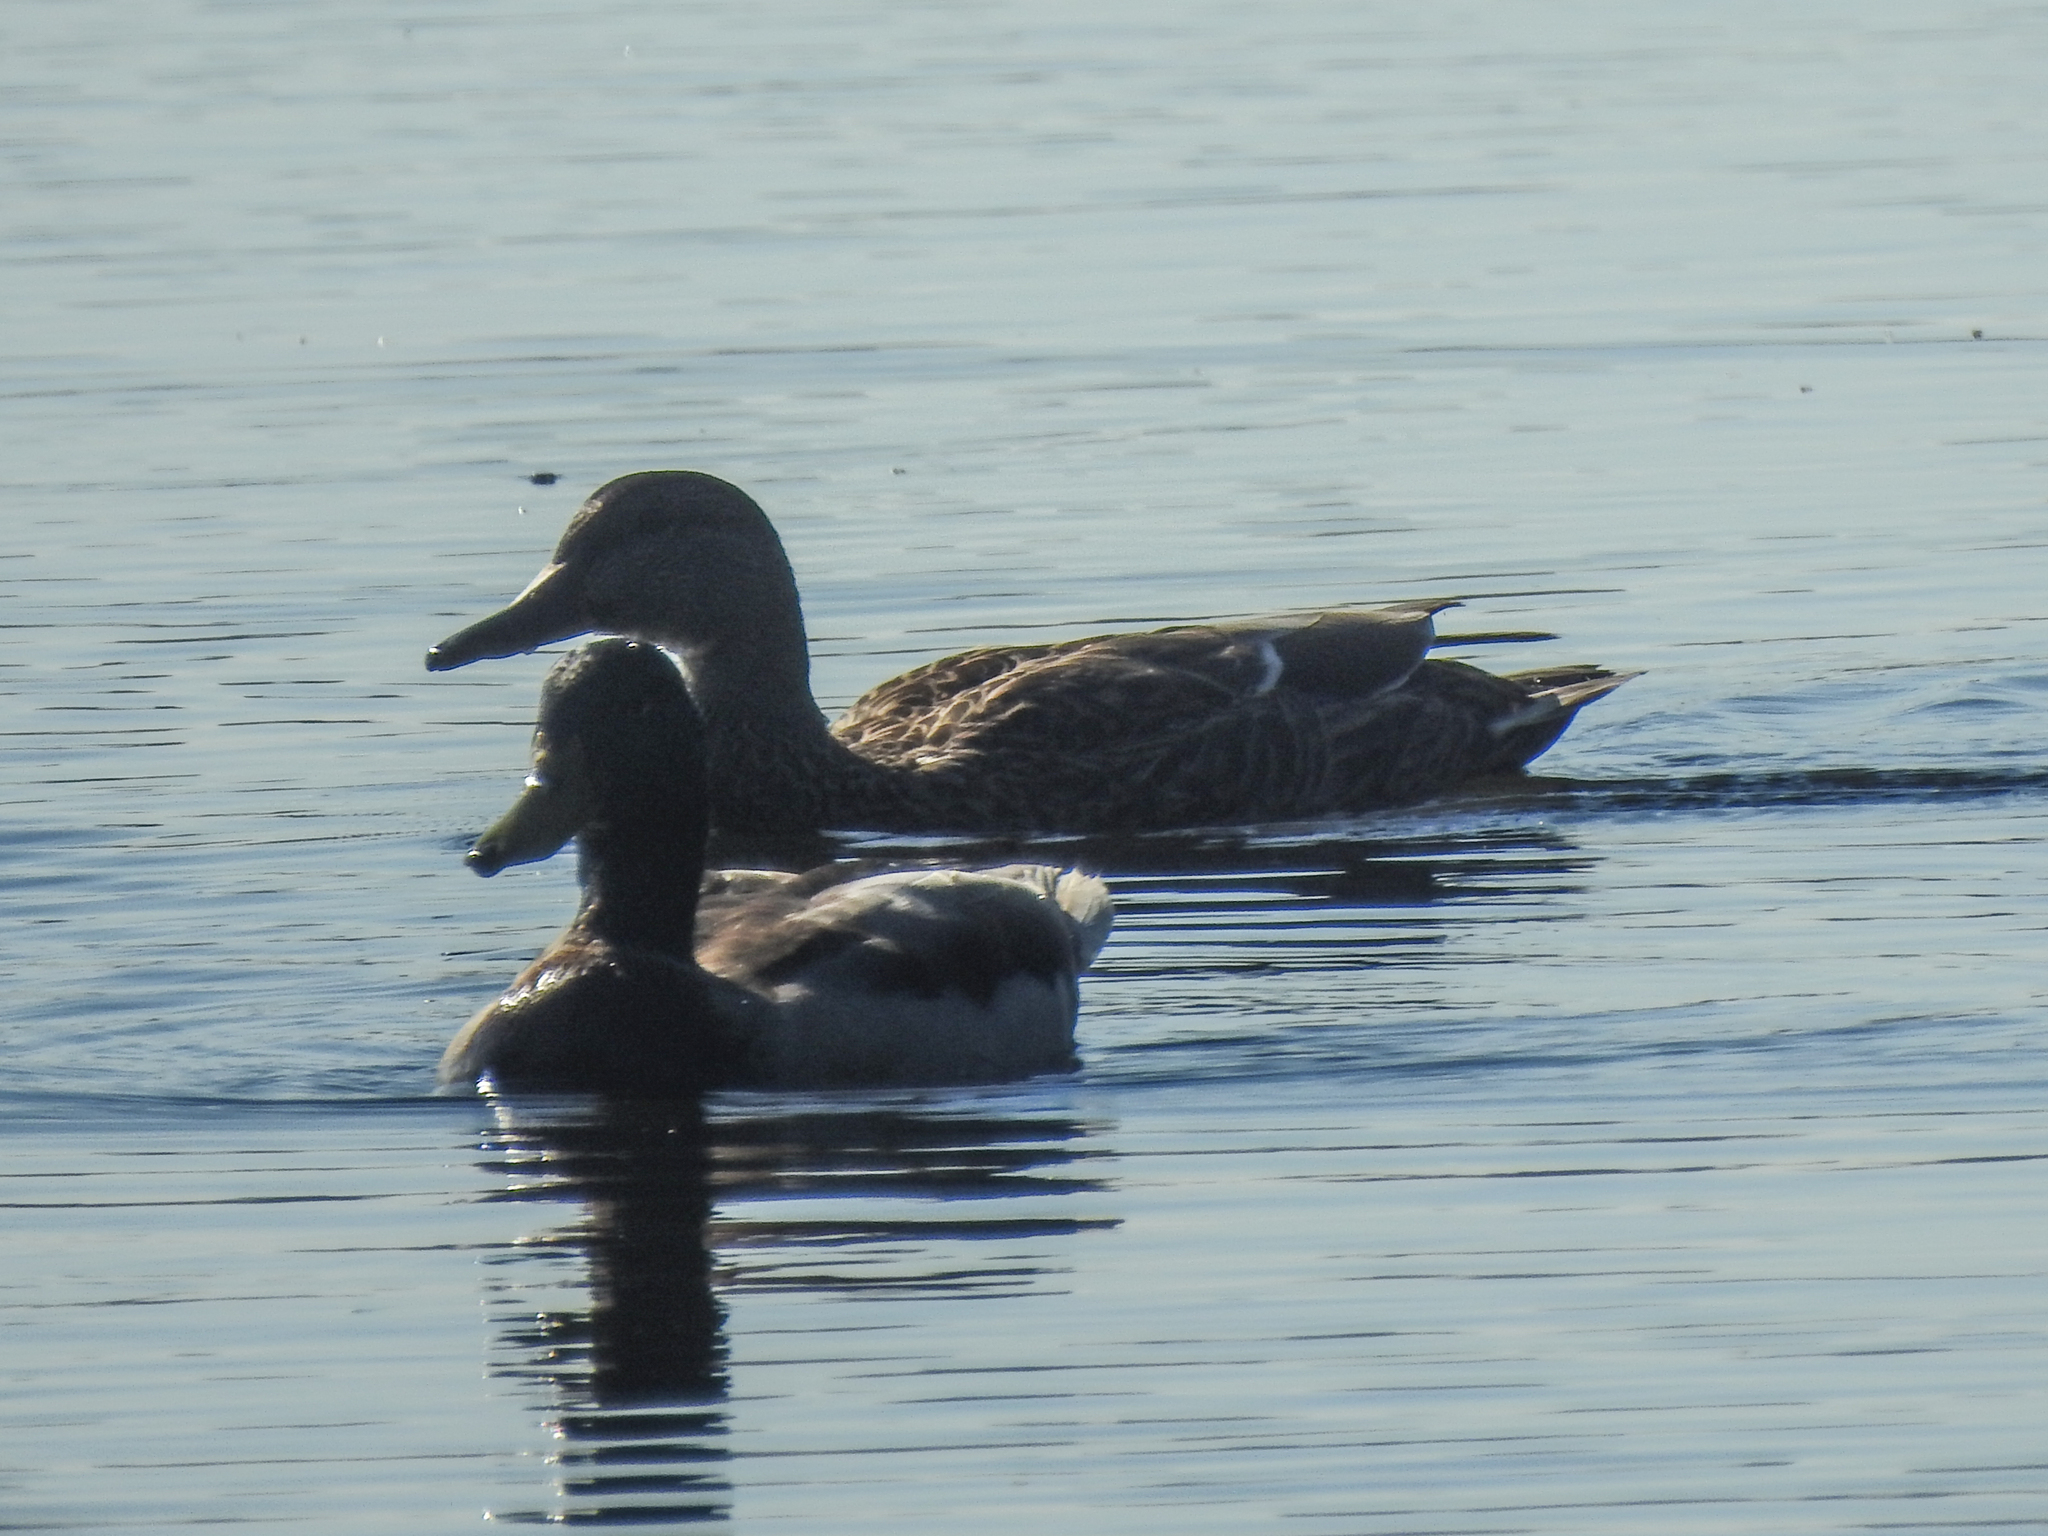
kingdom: Animalia
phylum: Chordata
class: Aves
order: Anseriformes
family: Anatidae
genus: Anas
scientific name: Anas platyrhynchos
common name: Mallard
